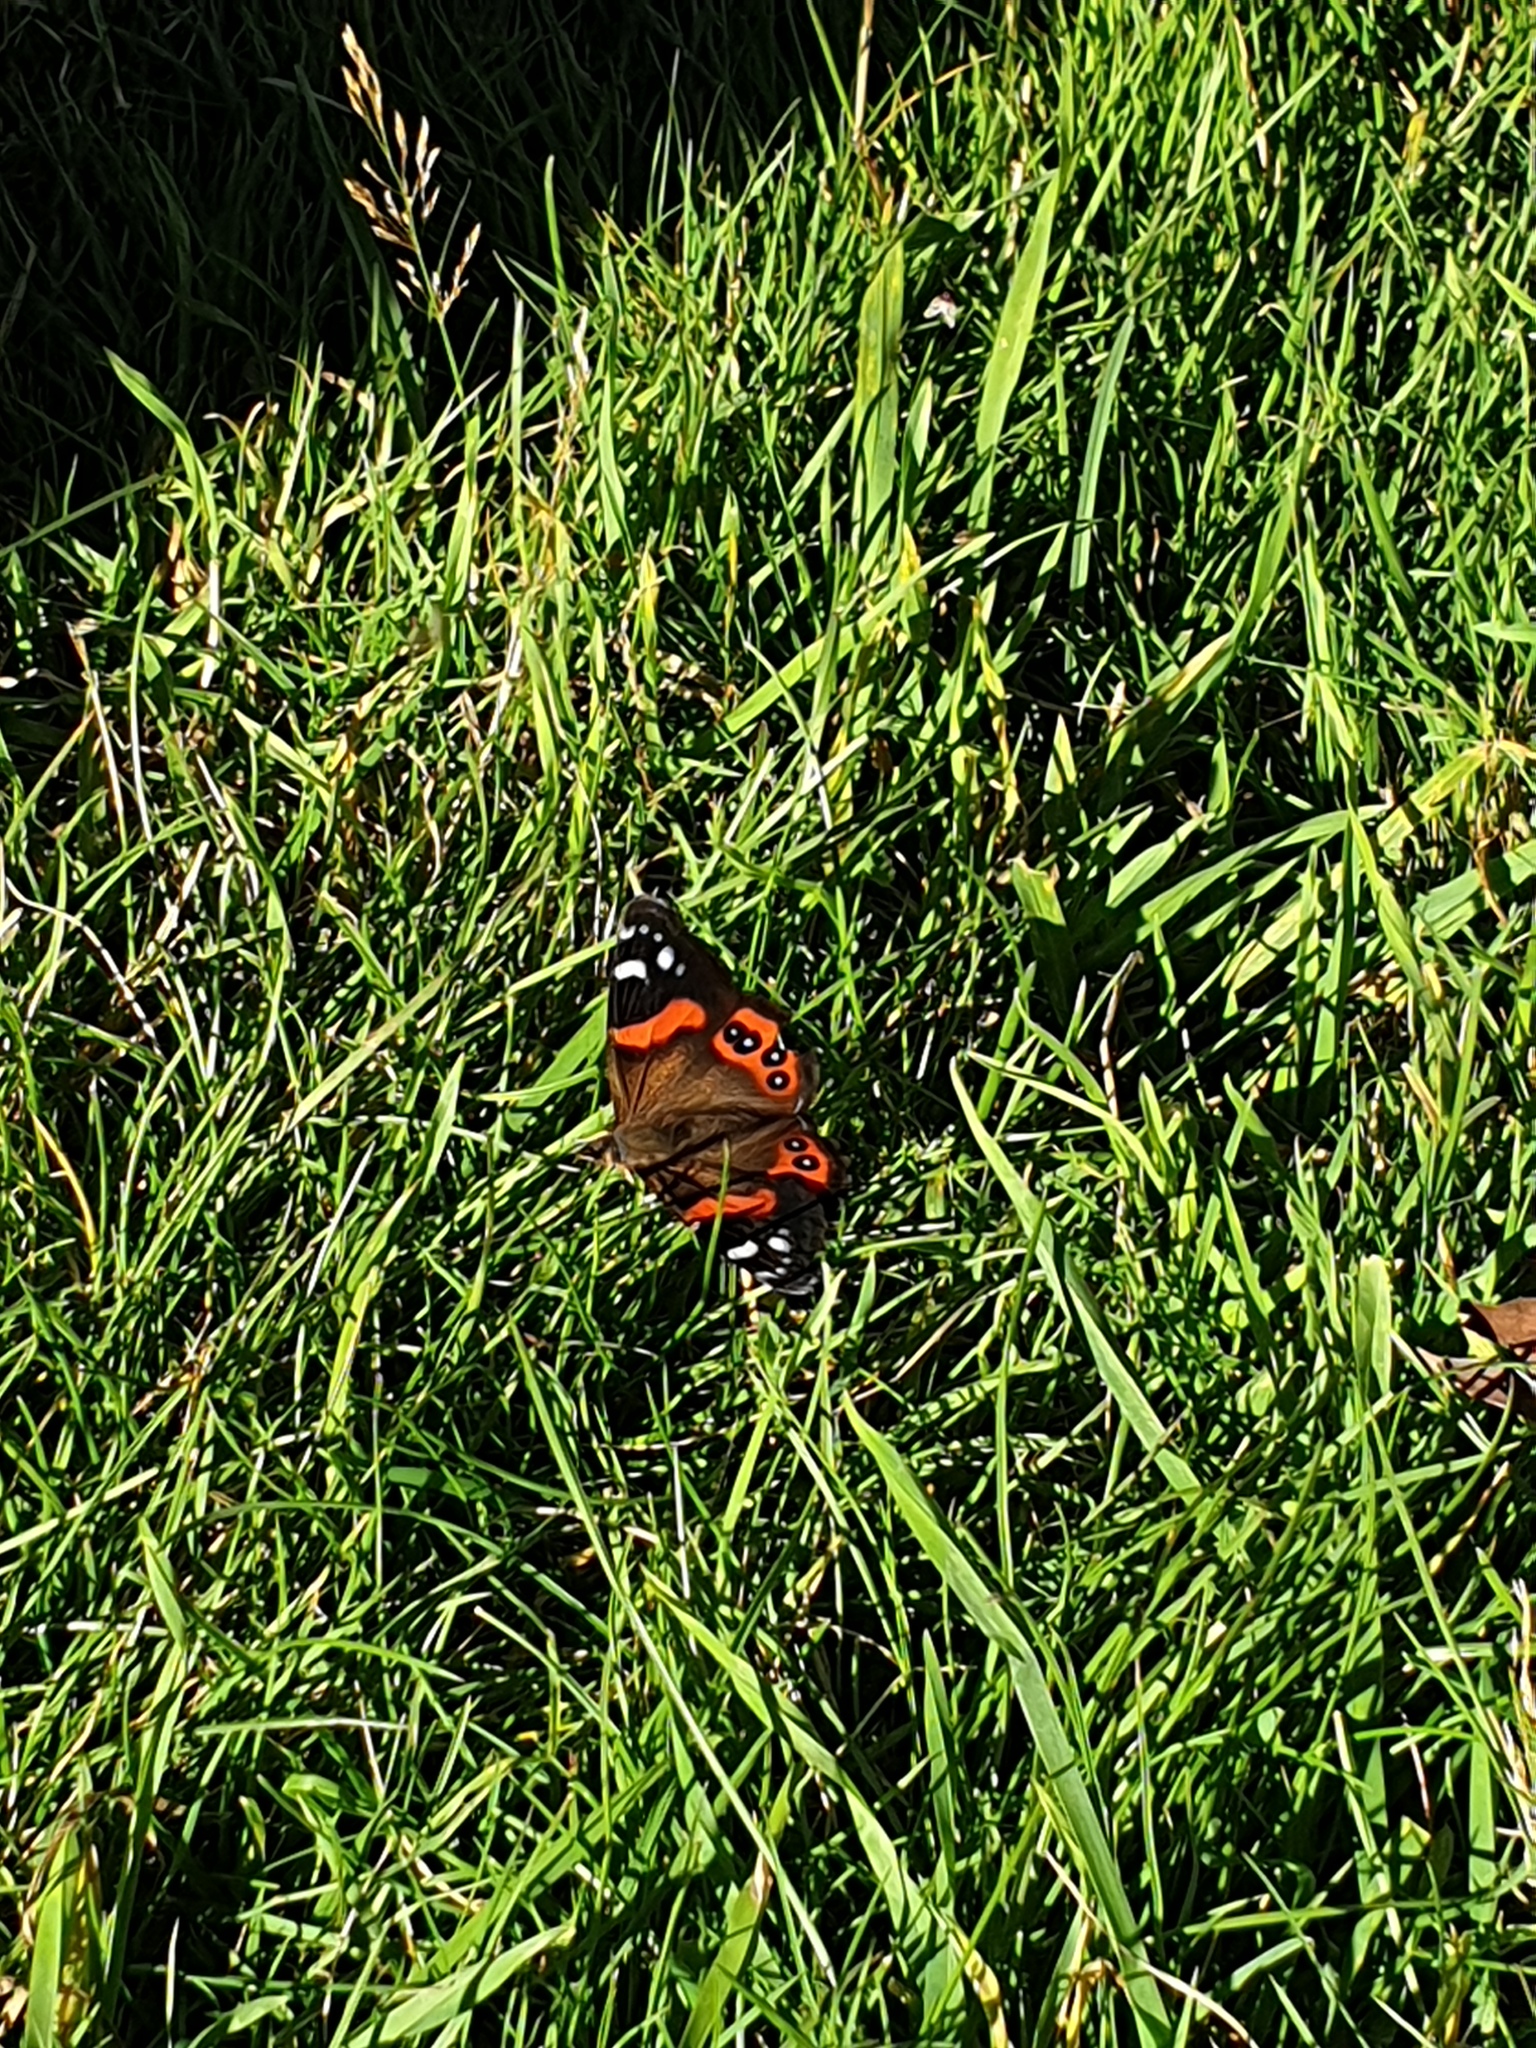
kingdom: Animalia
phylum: Arthropoda
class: Insecta
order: Lepidoptera
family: Nymphalidae
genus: Vanessa
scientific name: Vanessa gonerilla
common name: New zealand red admiral
